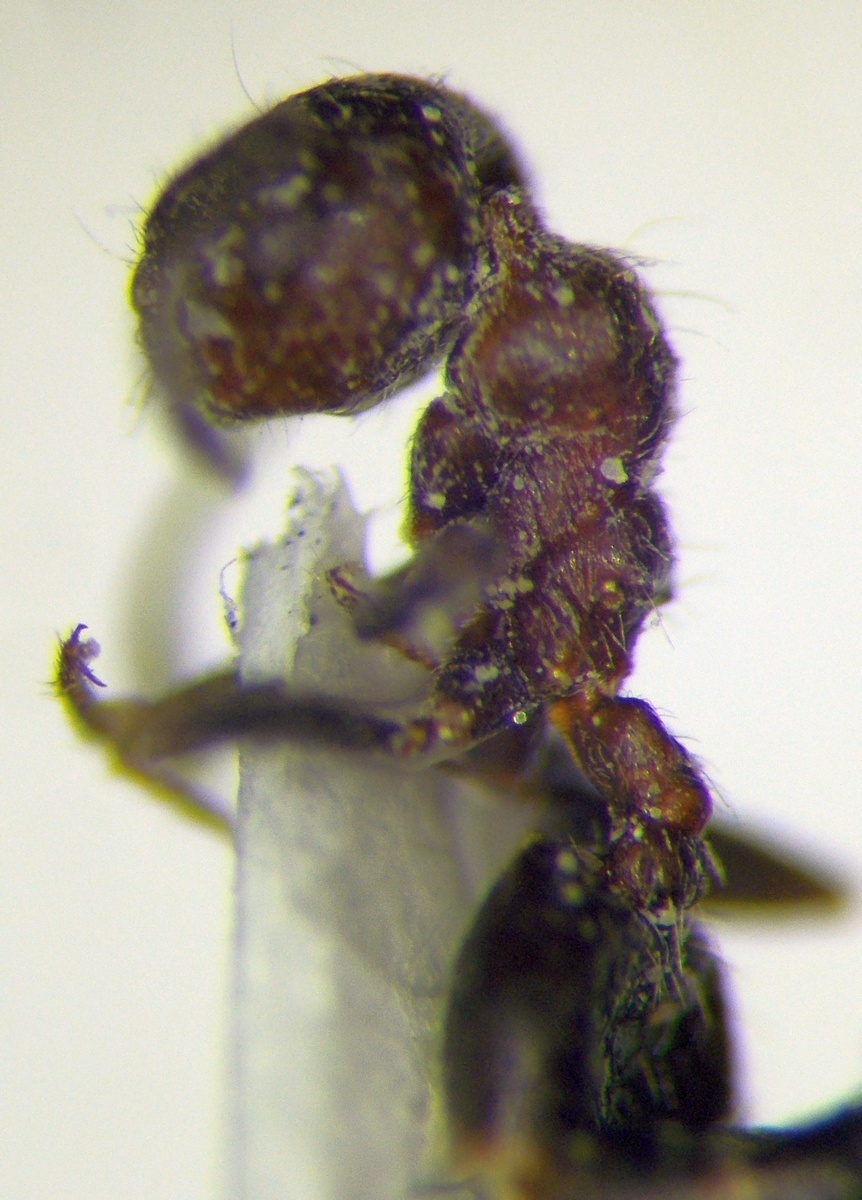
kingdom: Animalia
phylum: Arthropoda
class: Insecta
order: Hymenoptera
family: Formicidae
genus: Crematogaster
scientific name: Crematogaster subdentata
